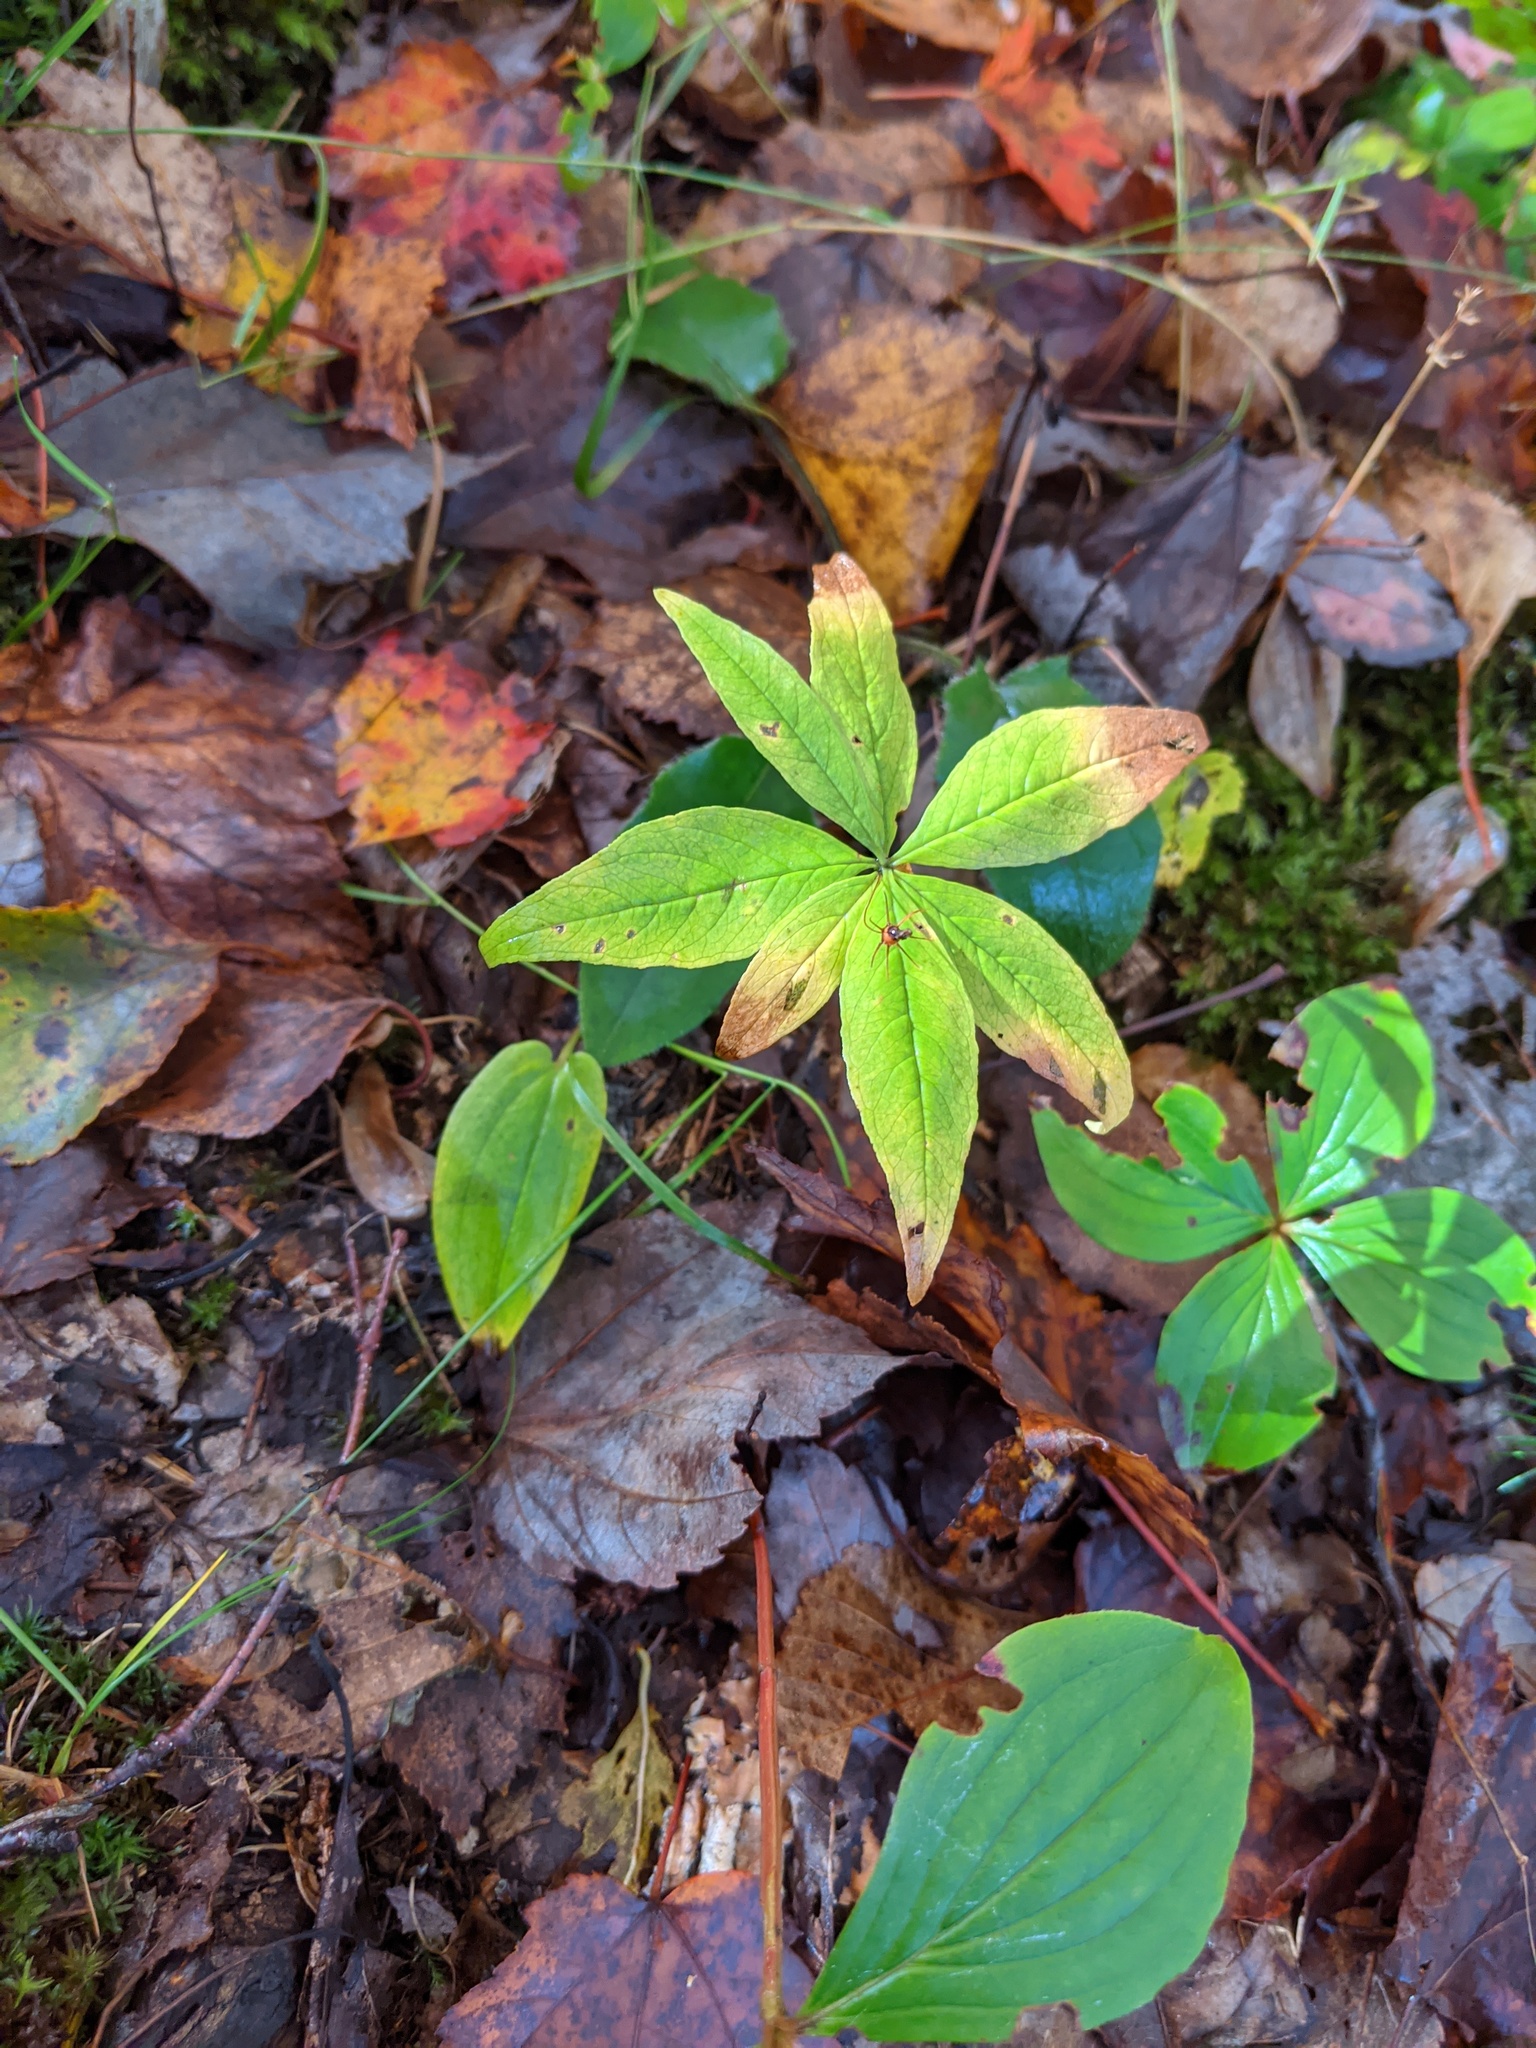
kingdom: Plantae
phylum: Tracheophyta
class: Magnoliopsida
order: Ericales
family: Primulaceae
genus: Lysimachia
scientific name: Lysimachia borealis
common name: American starflower
